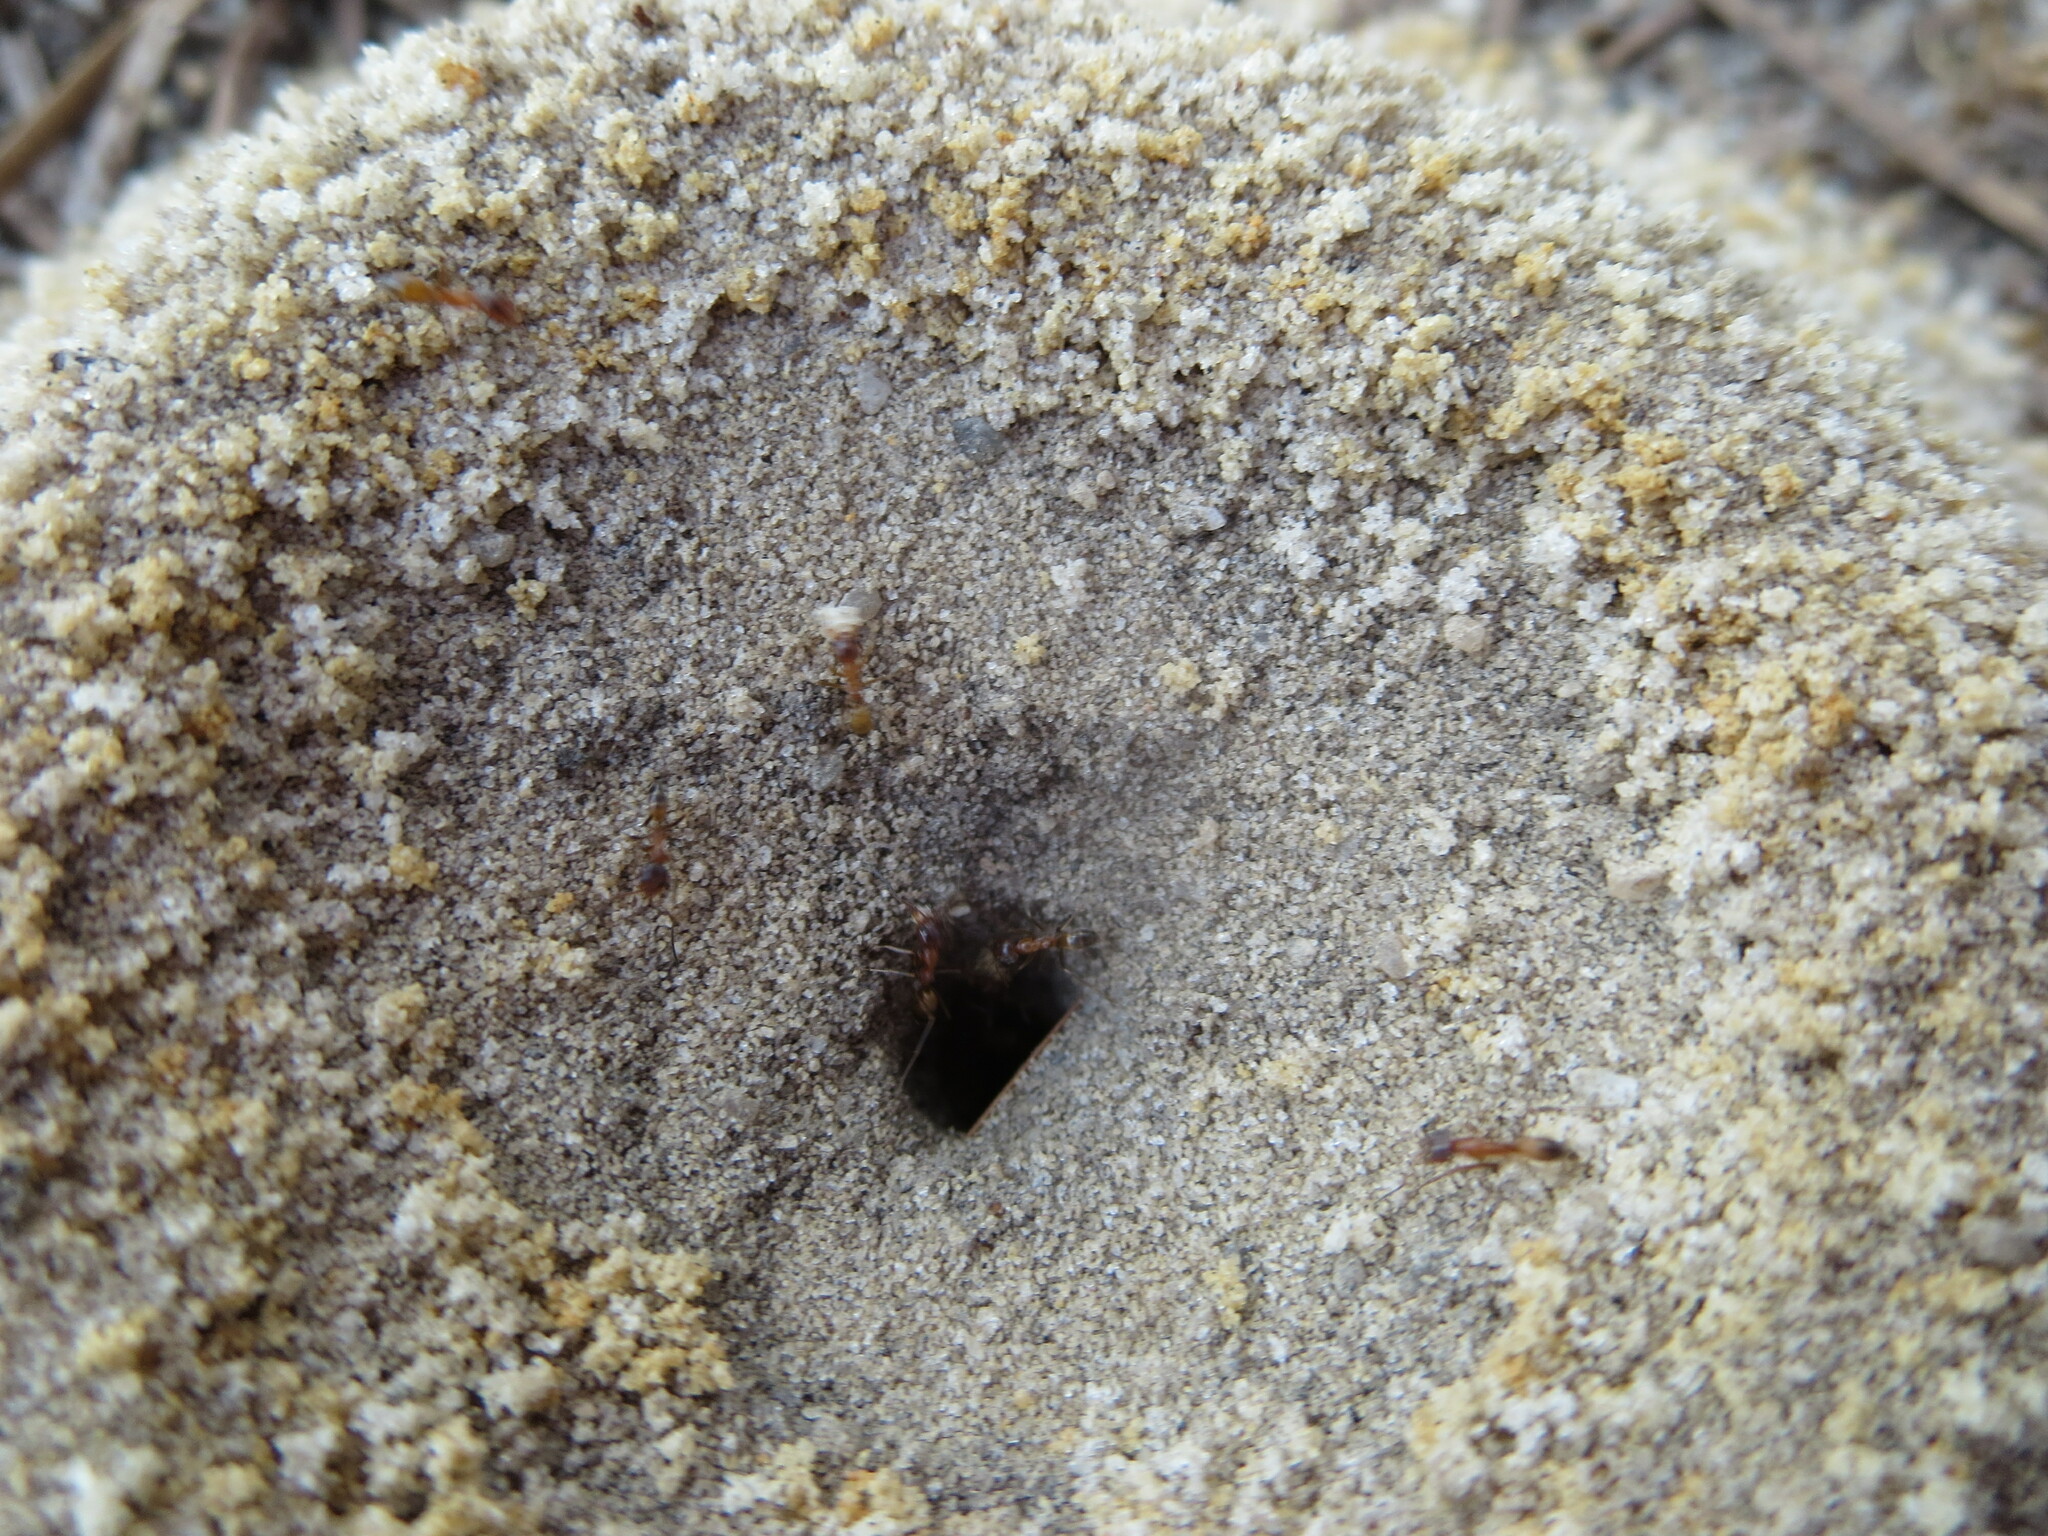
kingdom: Animalia
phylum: Arthropoda
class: Insecta
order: Hymenoptera
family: Formicidae
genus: Dorymyrmex
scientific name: Dorymyrmex bureni
